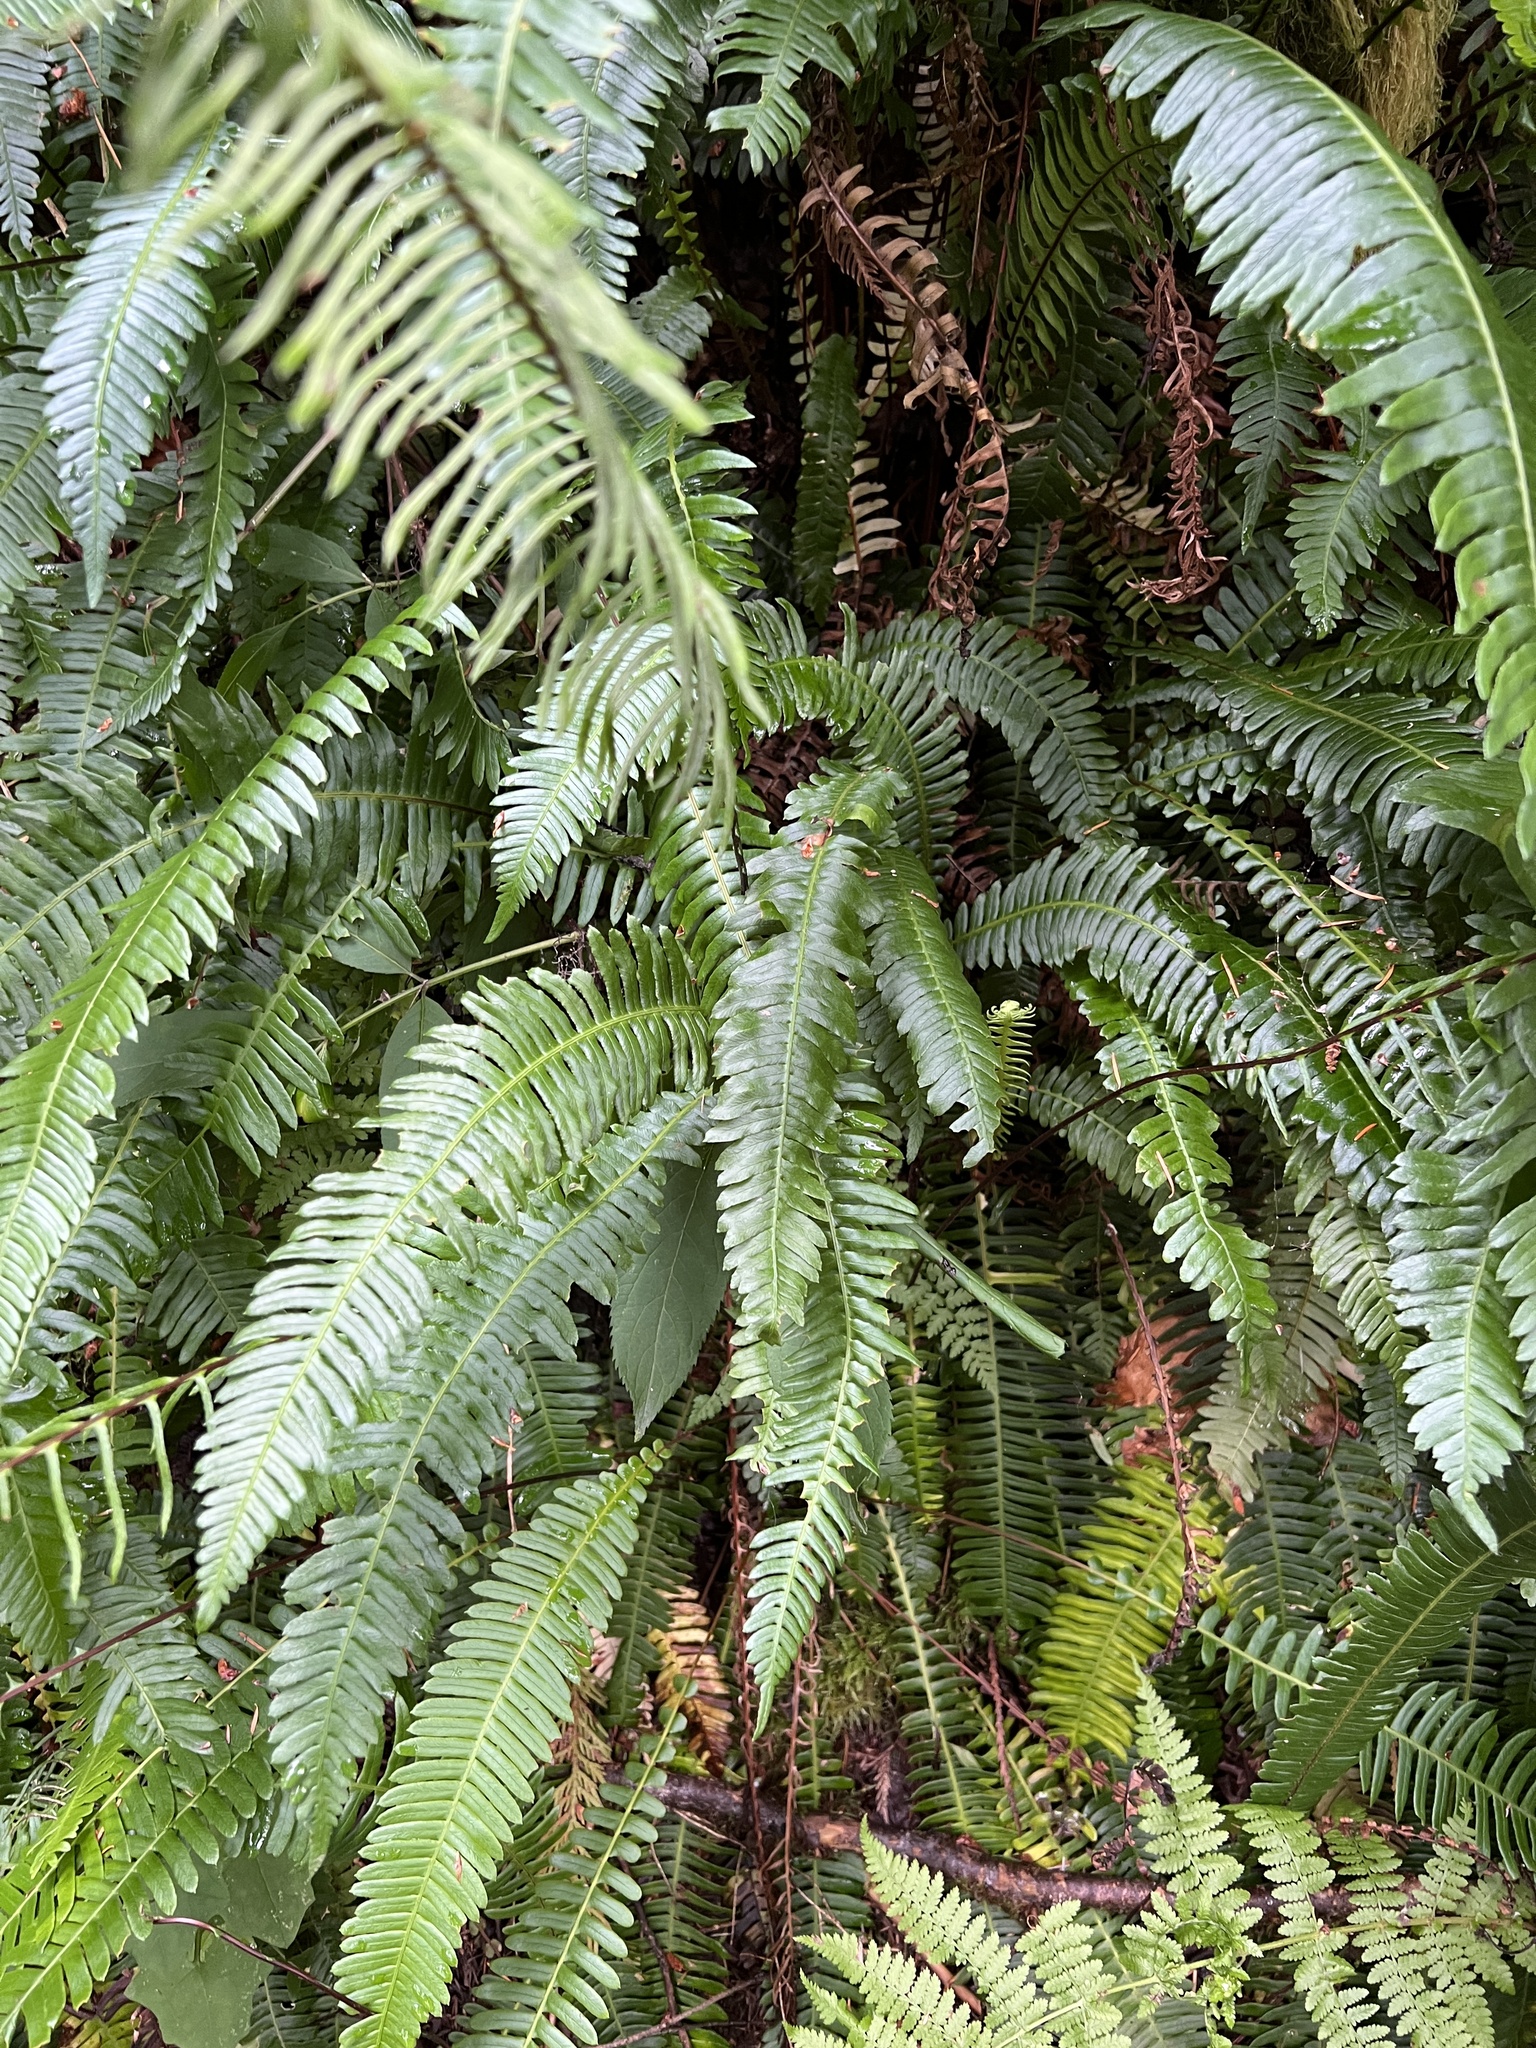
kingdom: Plantae
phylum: Tracheophyta
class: Polypodiopsida
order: Polypodiales
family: Blechnaceae
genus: Struthiopteris
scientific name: Struthiopteris spicant
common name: Deer fern
